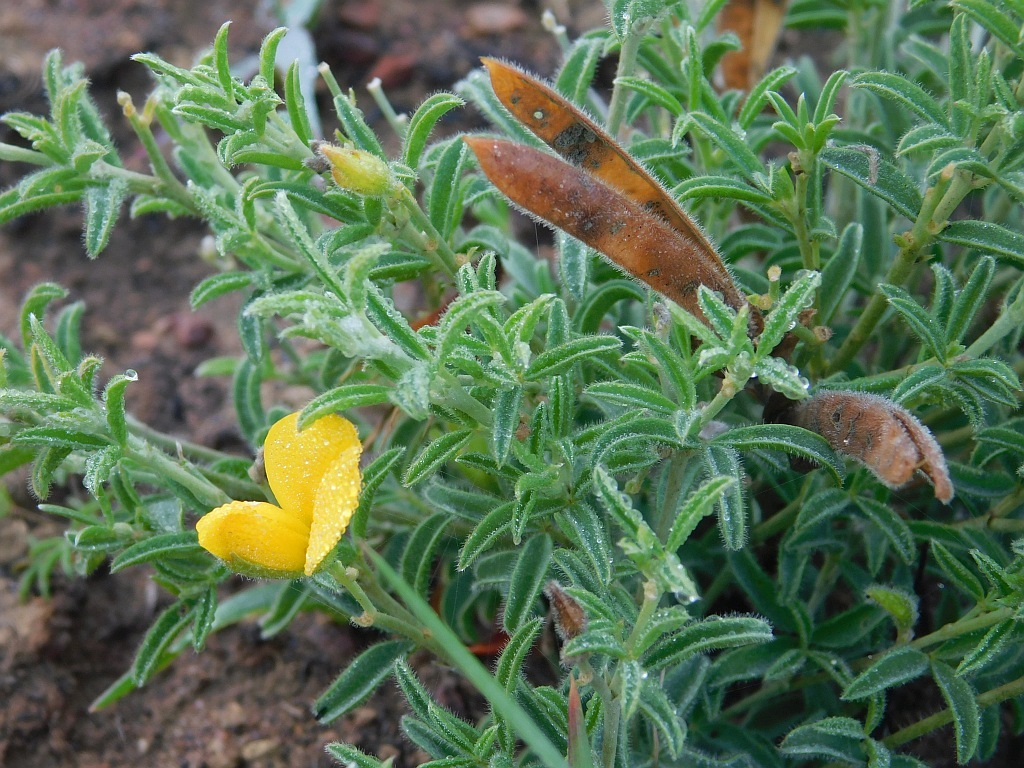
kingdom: Plantae
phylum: Tracheophyta
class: Magnoliopsida
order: Fabales
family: Fabaceae
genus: Argyrolobium
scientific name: Argyrolobium pachyphyllum
